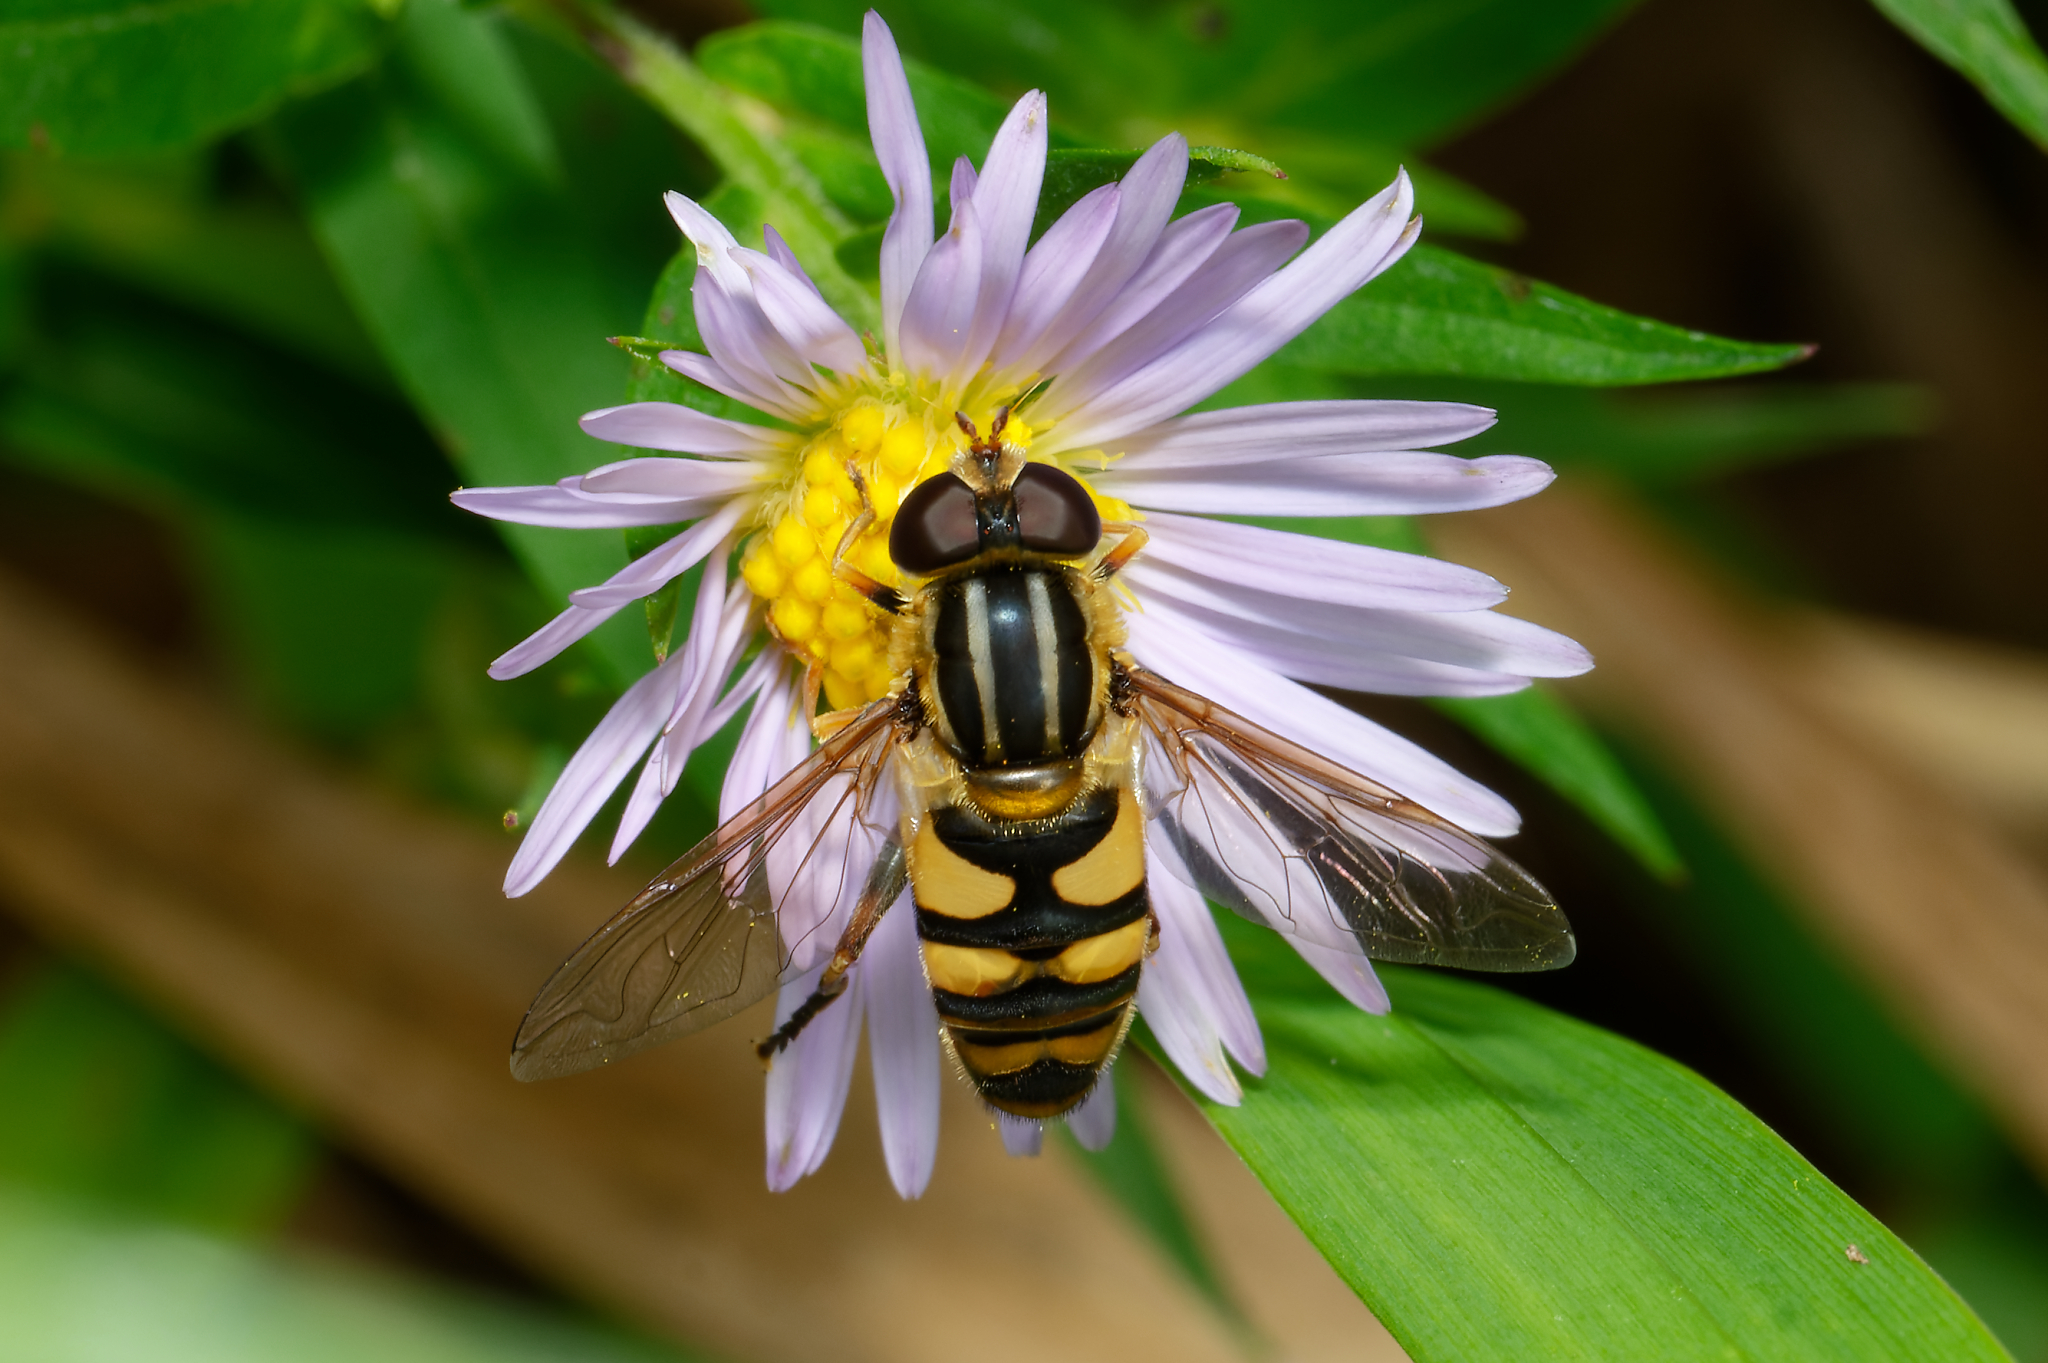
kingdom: Animalia
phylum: Arthropoda
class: Insecta
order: Diptera
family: Syrphidae
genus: Helophilus
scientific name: Helophilus fasciatus
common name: Narrow-headed marsh fly
